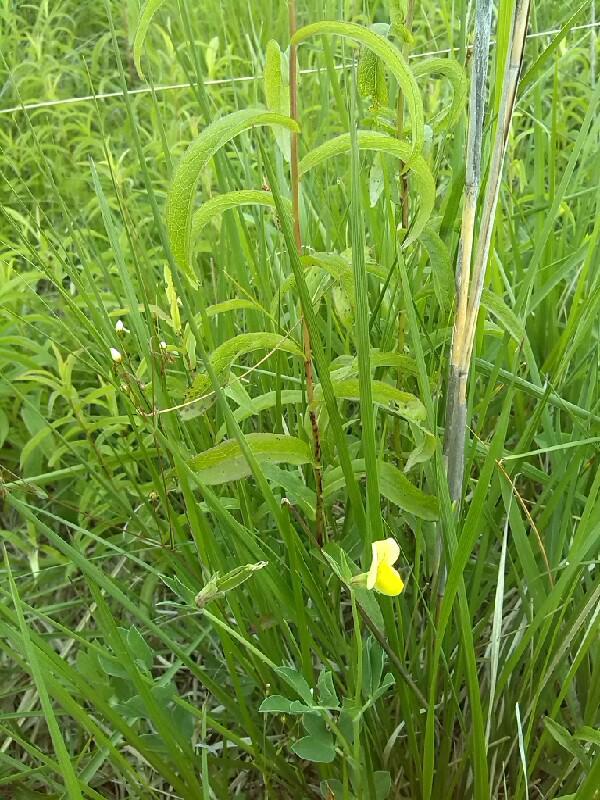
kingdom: Plantae
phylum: Tracheophyta
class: Magnoliopsida
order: Fabales
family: Fabaceae
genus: Lotus
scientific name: Lotus maritimus
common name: Dragon's-teeth
